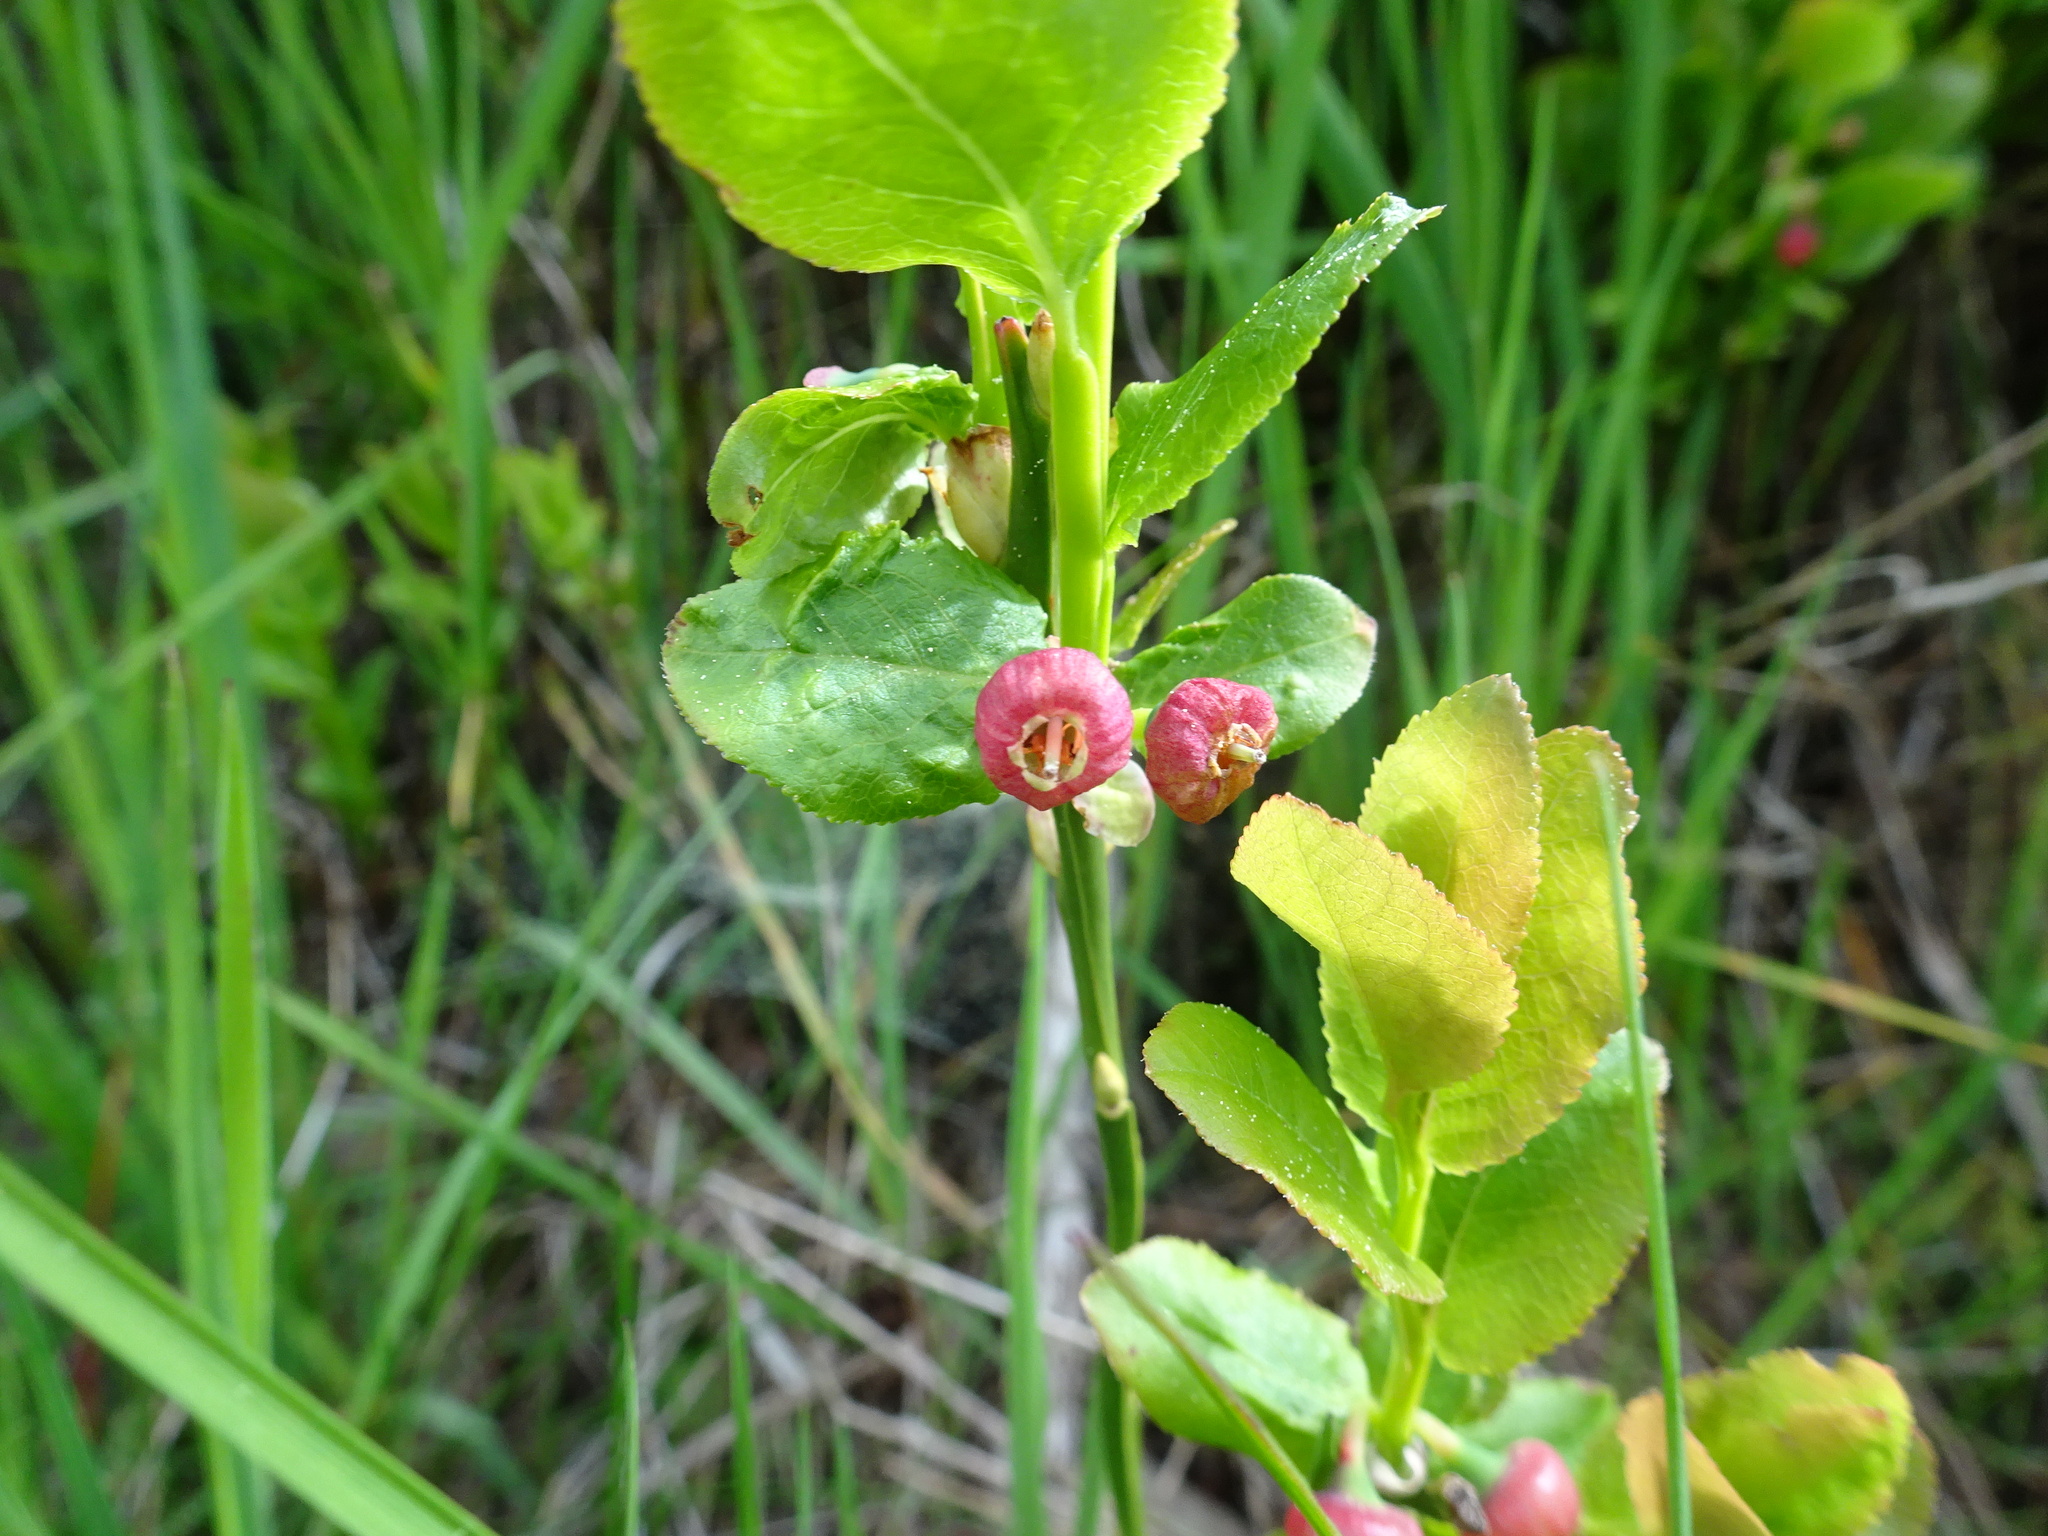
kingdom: Plantae
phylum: Tracheophyta
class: Magnoliopsida
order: Ericales
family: Ericaceae
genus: Vaccinium
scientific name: Vaccinium myrtillus
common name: Bilberry
